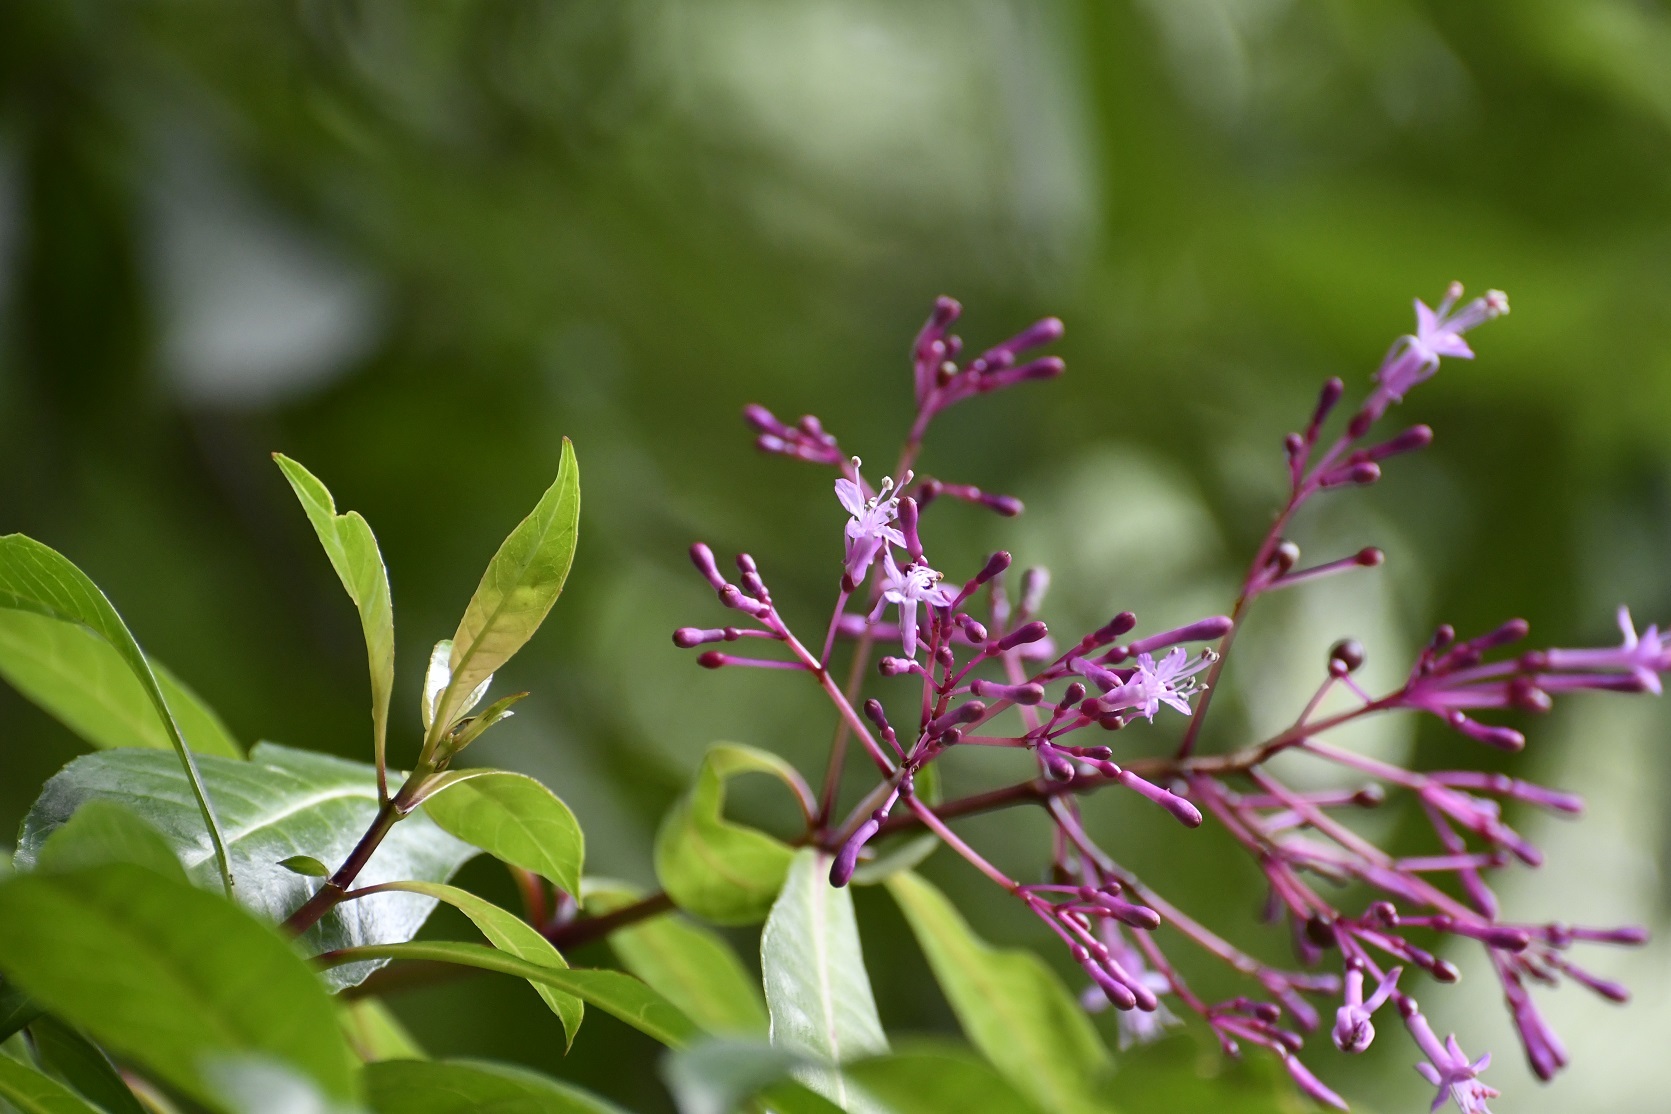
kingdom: Plantae
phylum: Tracheophyta
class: Magnoliopsida
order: Myrtales
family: Onagraceae
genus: Fuchsia
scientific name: Fuchsia paniculata
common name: Shrubby fuchsia
